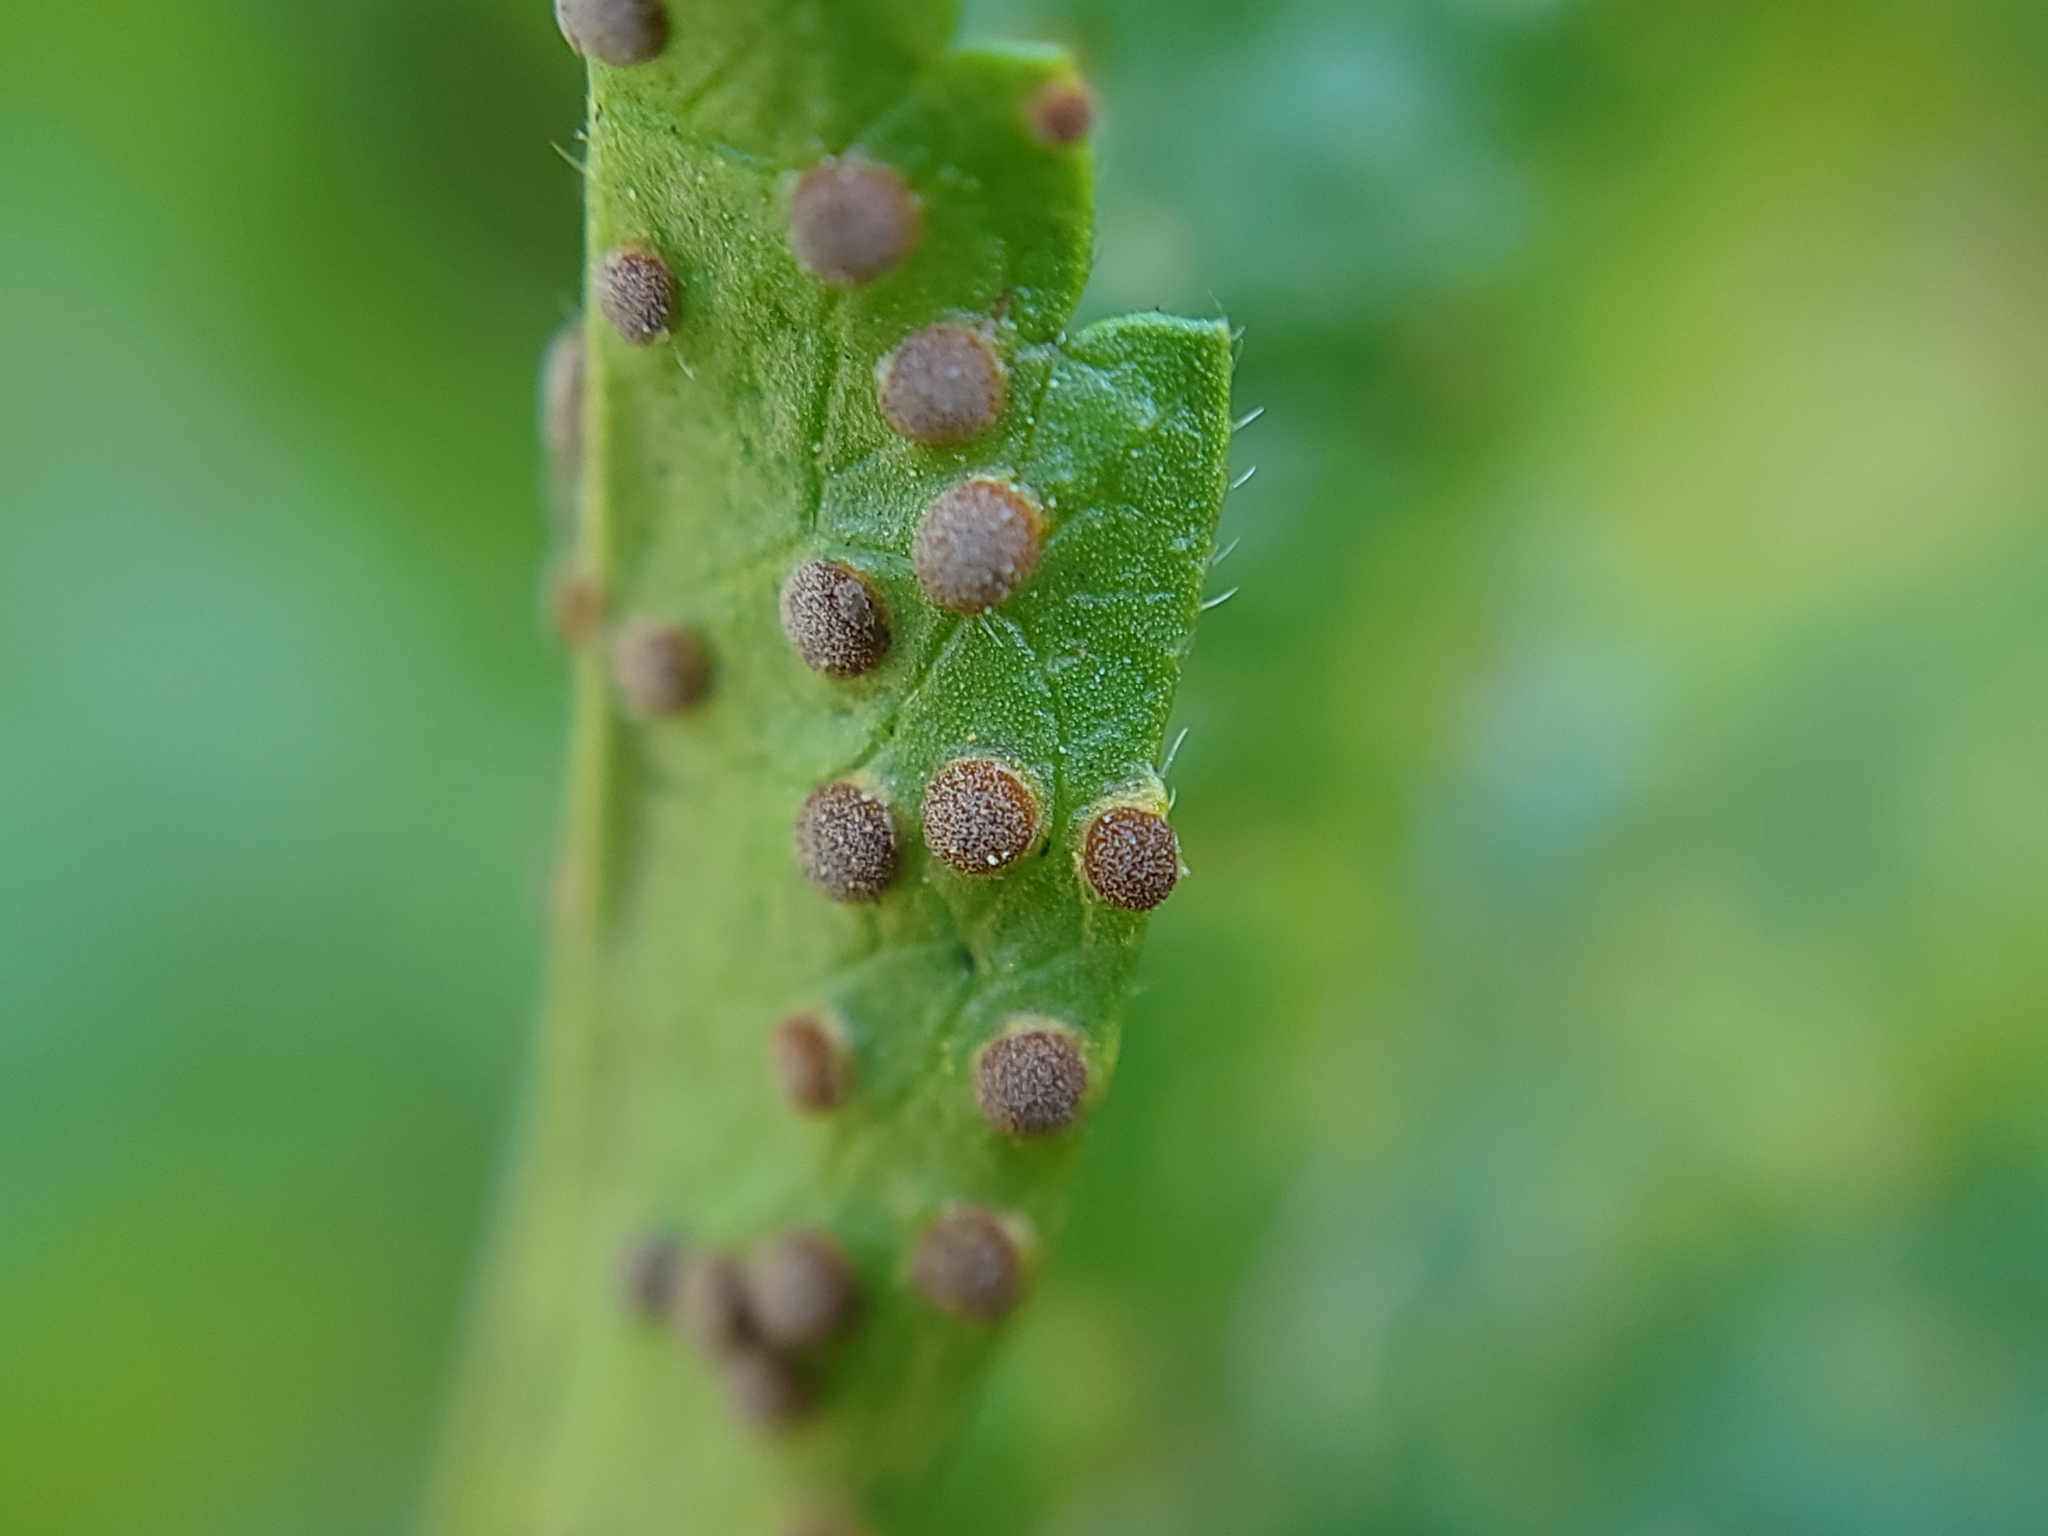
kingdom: Fungi
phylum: Basidiomycota
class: Pucciniomycetes
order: Pucciniales
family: Pucciniaceae
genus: Puccinia
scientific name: Puccinia malvacearum
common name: Hollyhock rust
